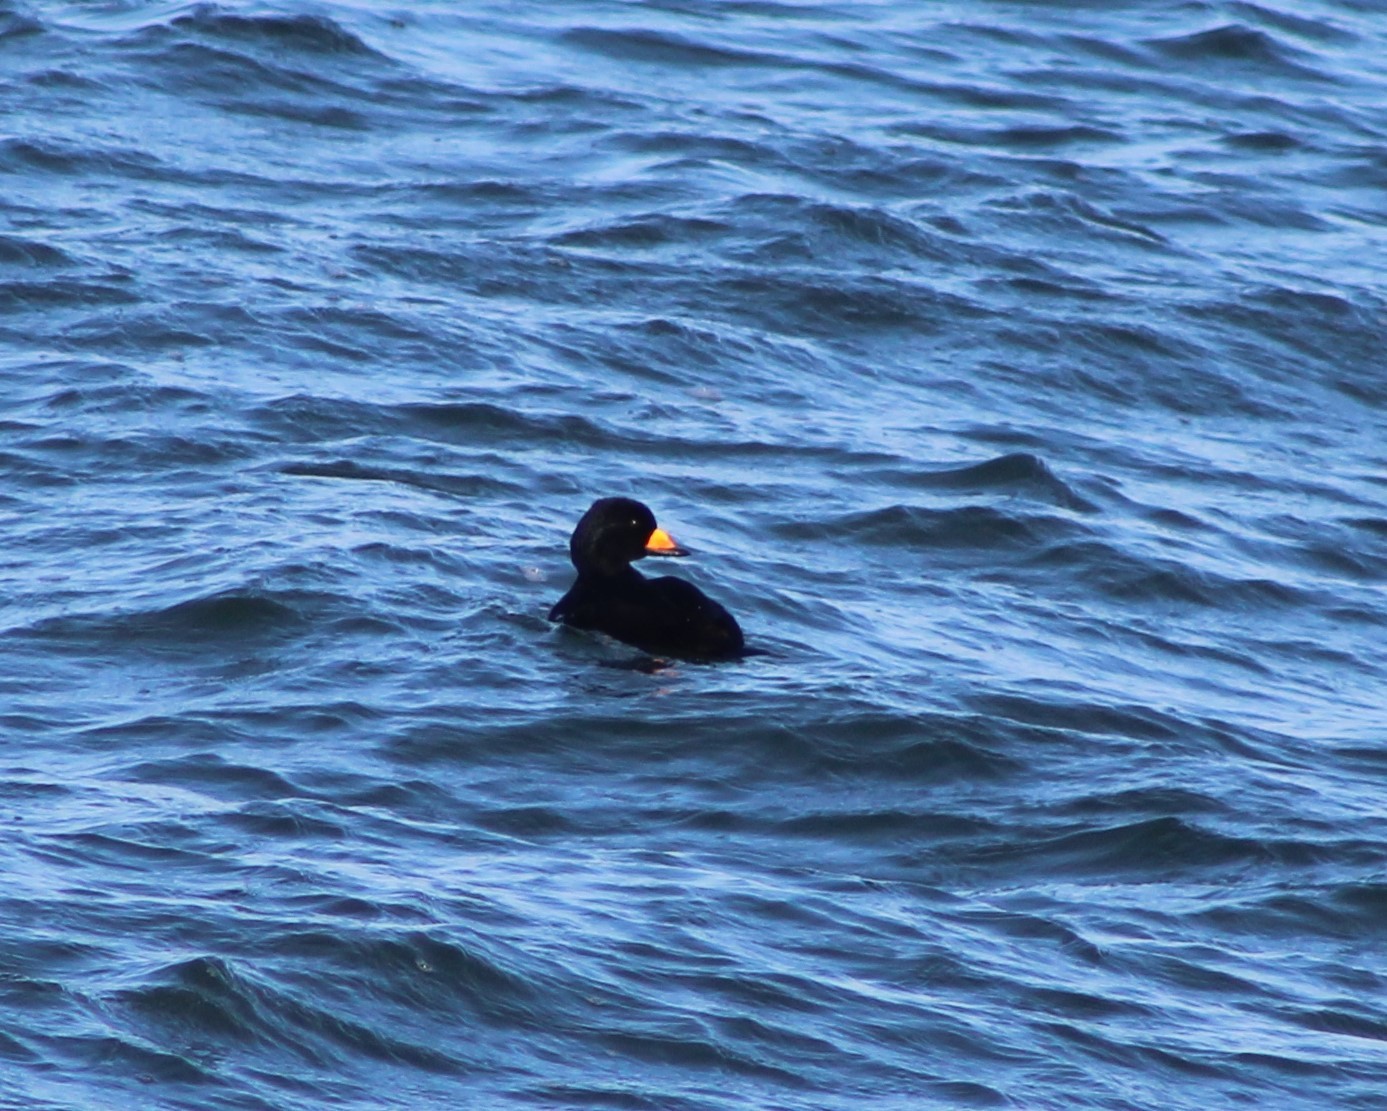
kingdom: Animalia
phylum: Chordata
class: Aves
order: Anseriformes
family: Anatidae
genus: Melanitta
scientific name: Melanitta americana
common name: Black scoter
